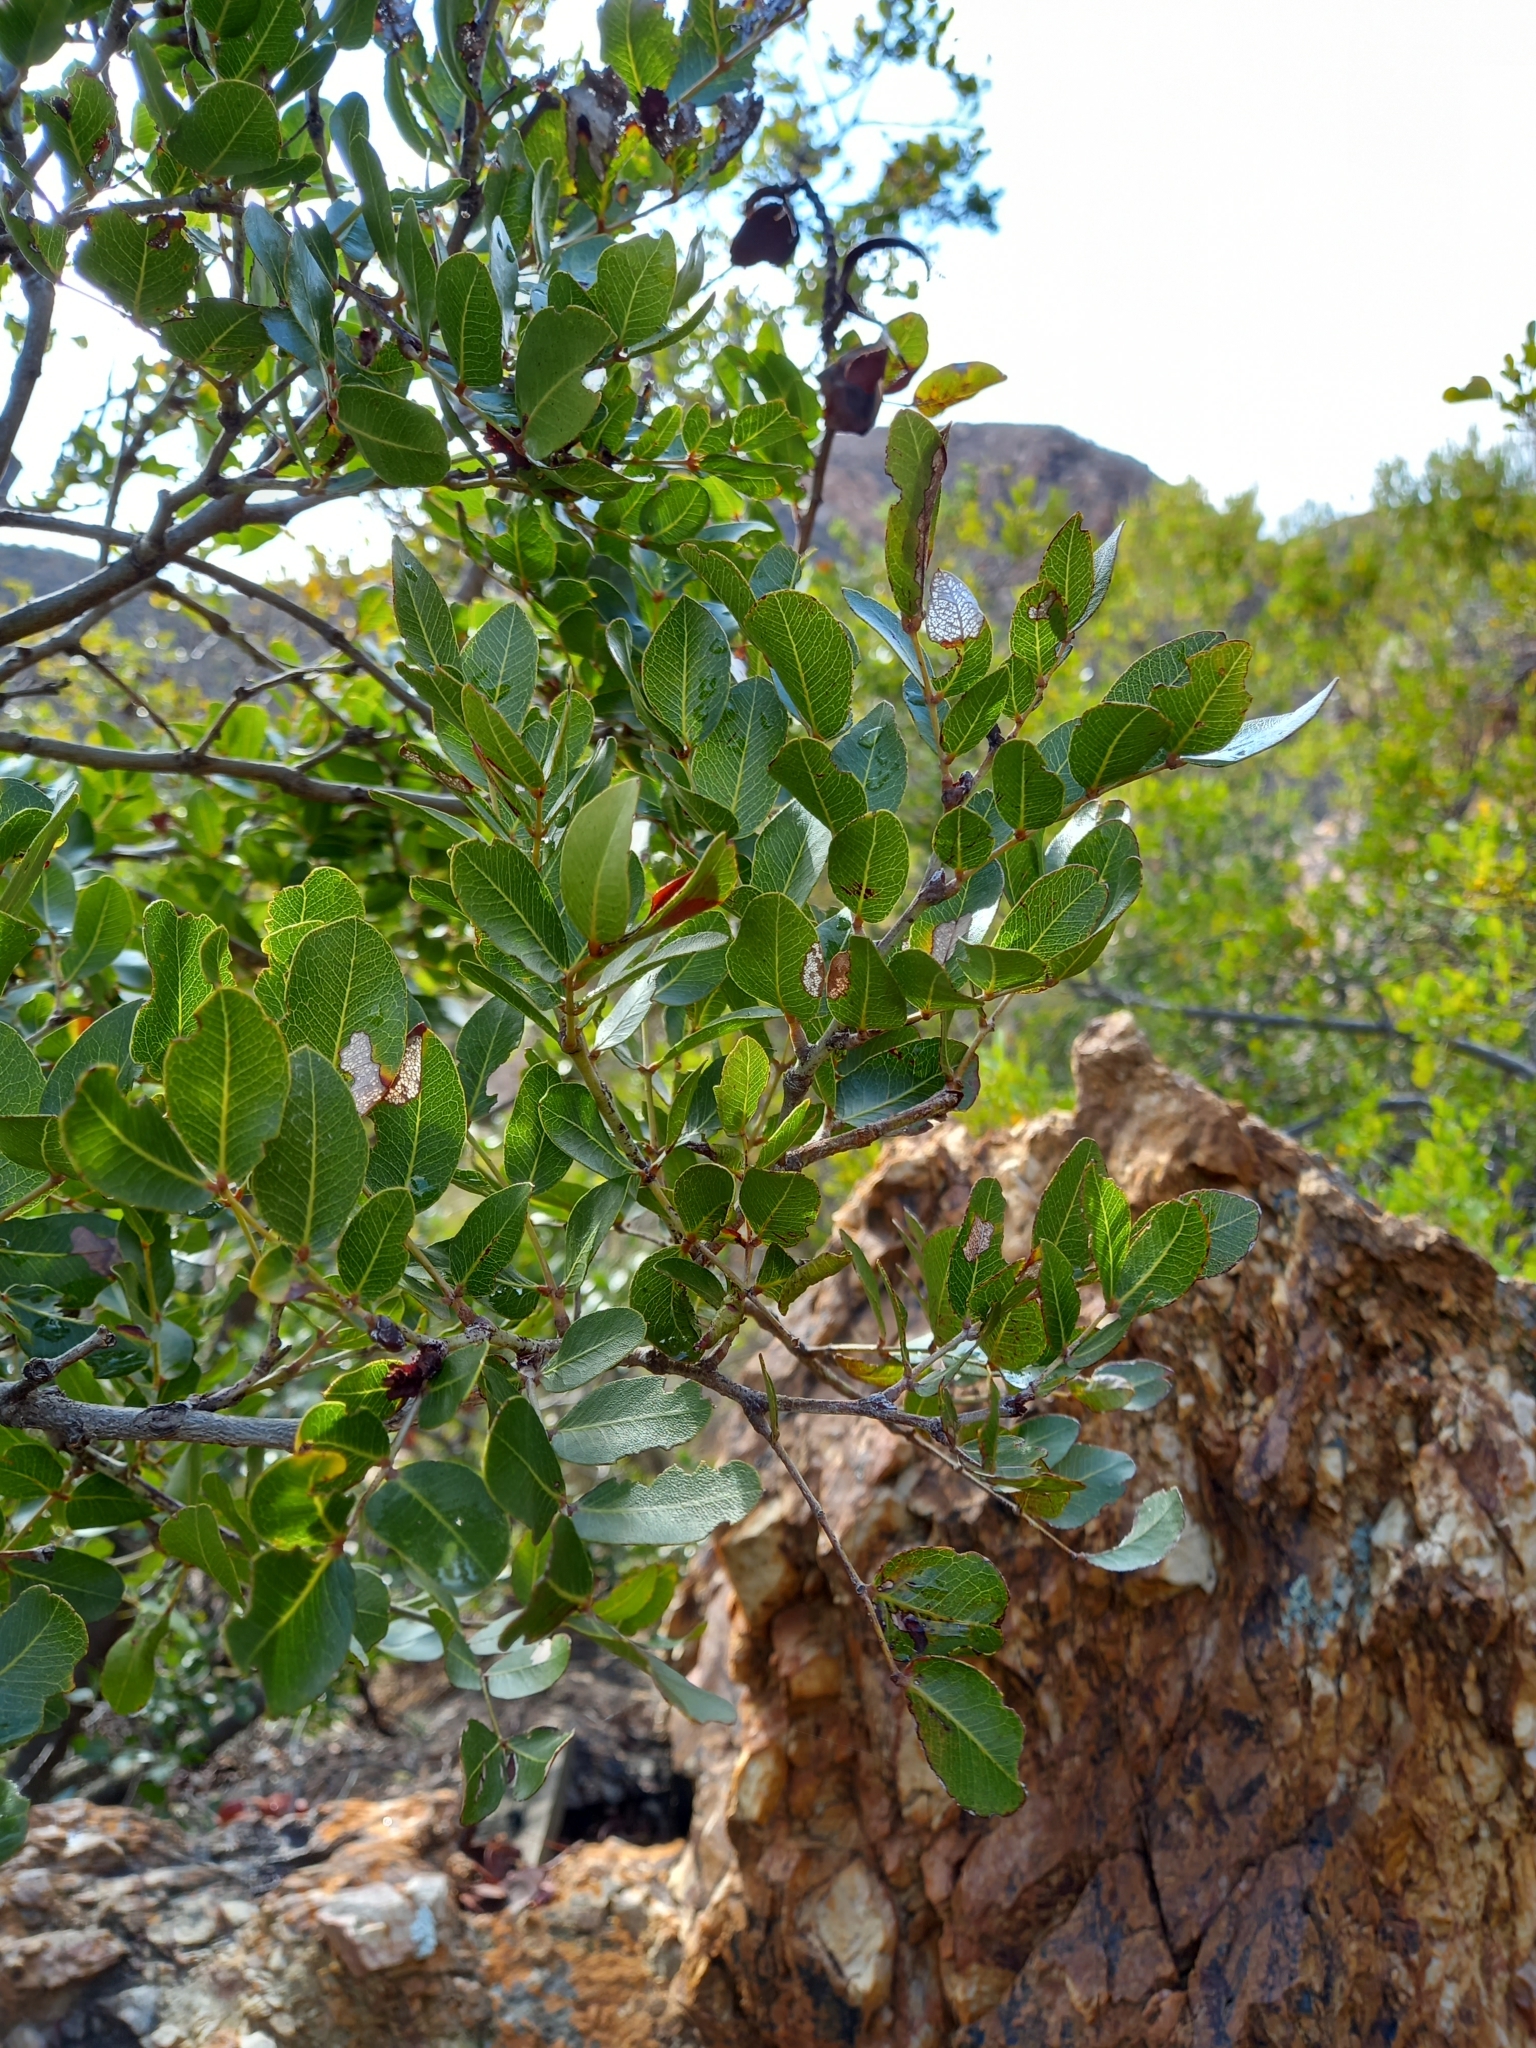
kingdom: Plantae
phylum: Tracheophyta
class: Magnoliopsida
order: Fabales
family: Fabaceae
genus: Schotia
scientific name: Schotia latifolia
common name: Bush boer-bean
